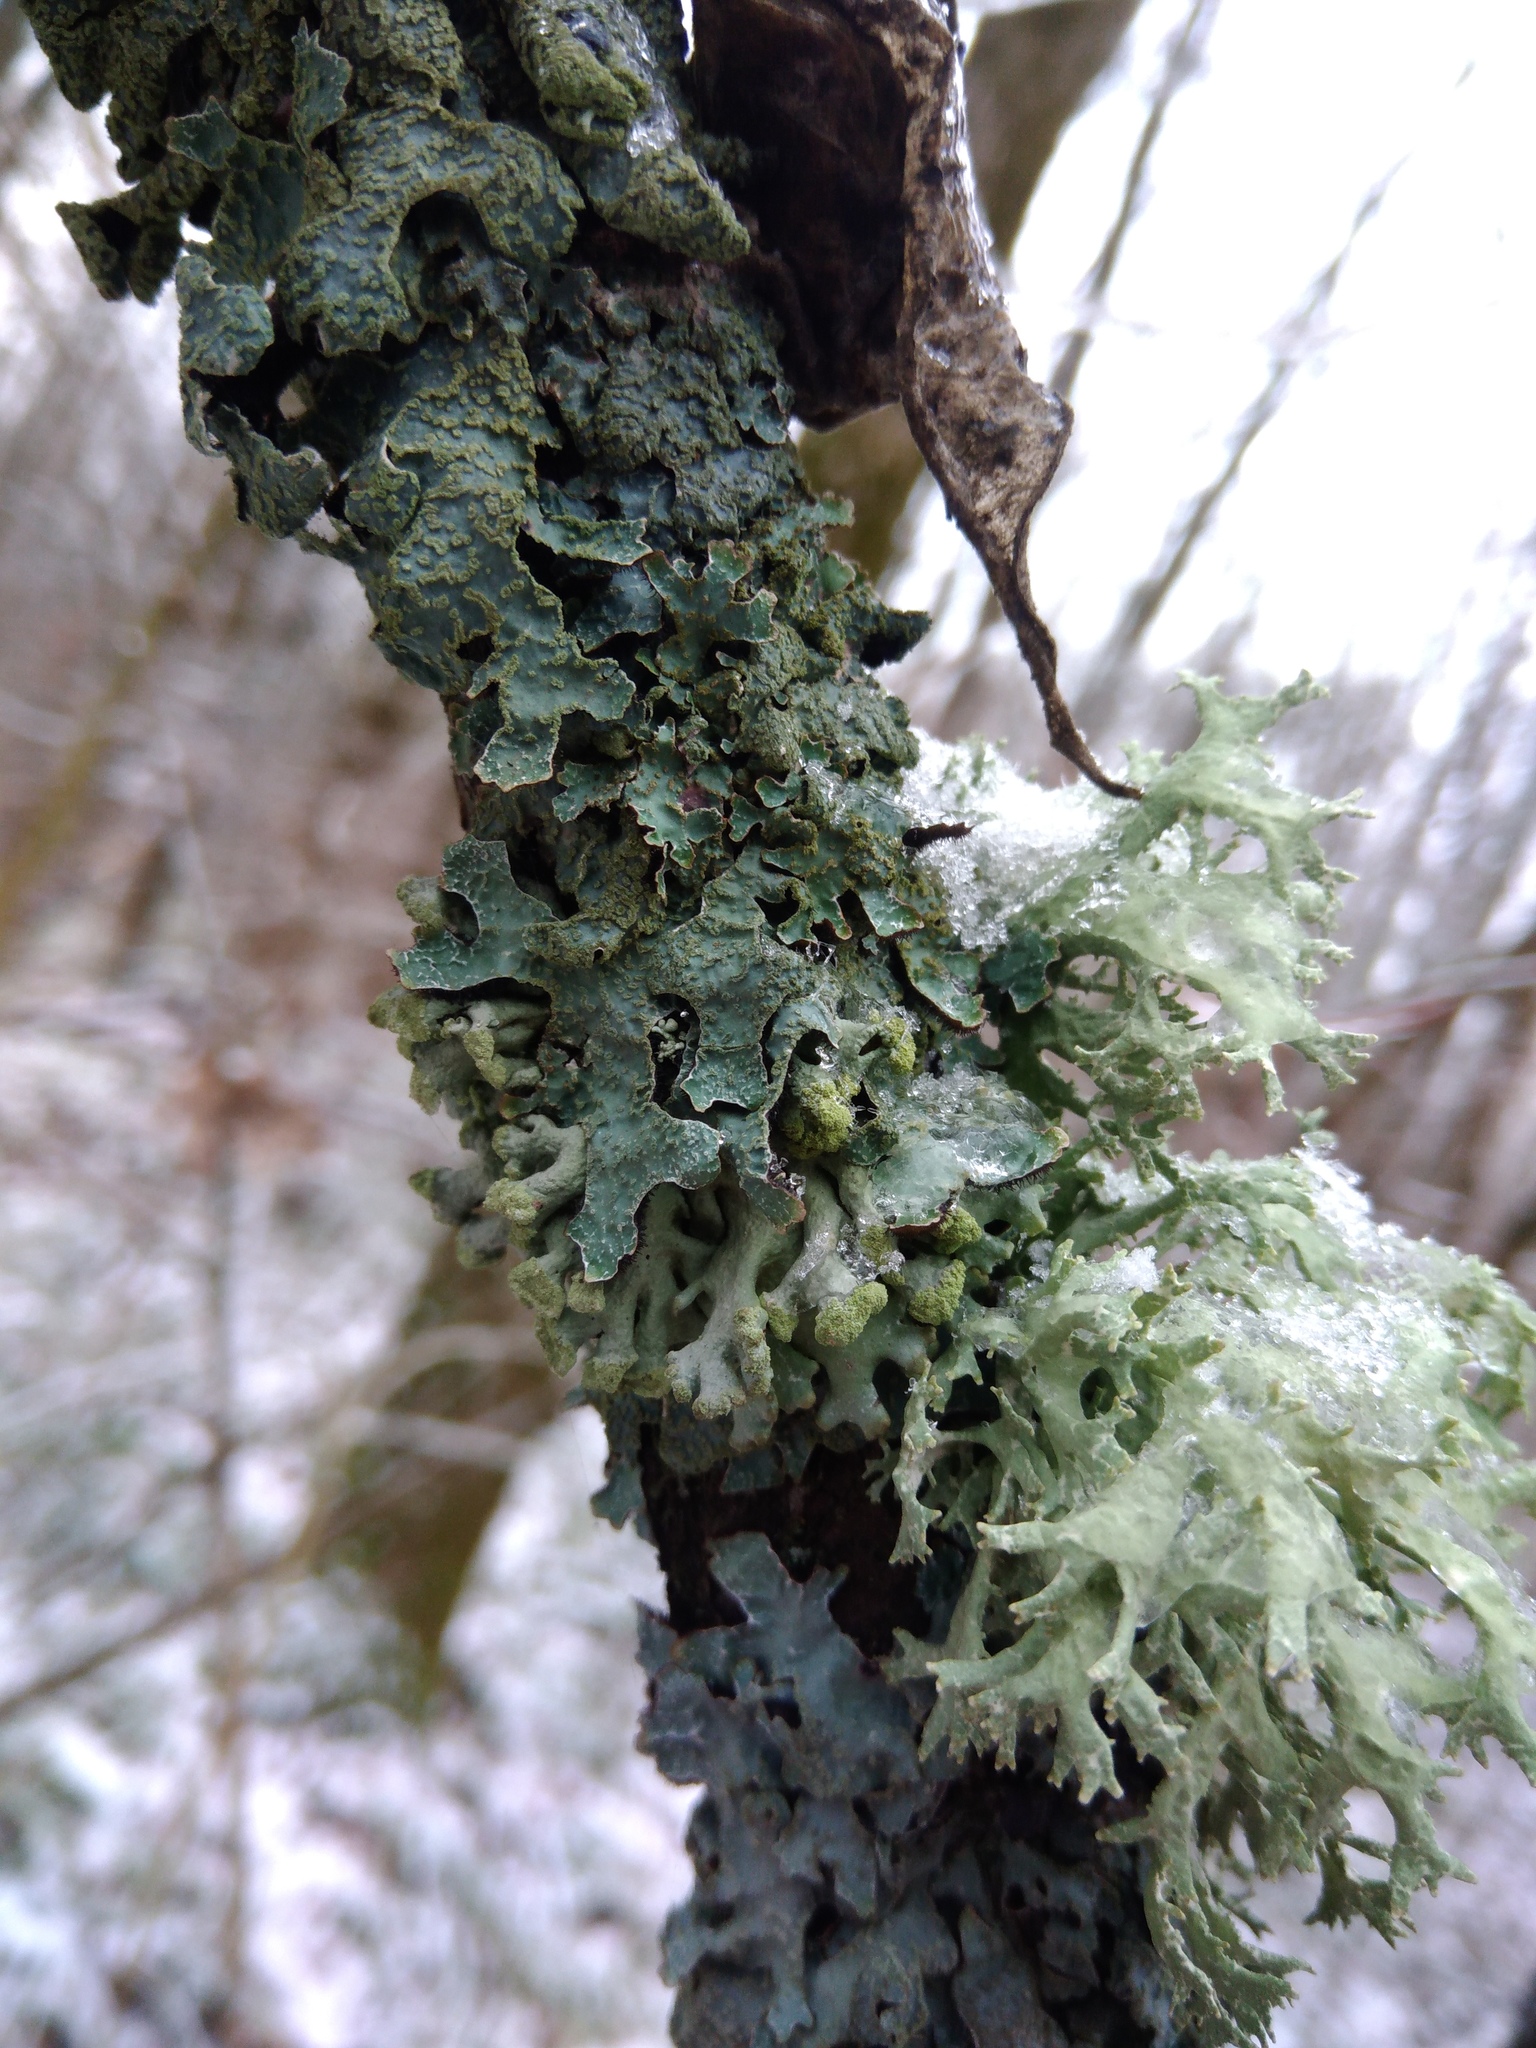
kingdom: Fungi
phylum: Ascomycota
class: Lecanoromycetes
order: Lecanorales
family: Parmeliaceae
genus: Hypogymnia
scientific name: Hypogymnia tubulosa
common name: Powder-headed tube lichen
